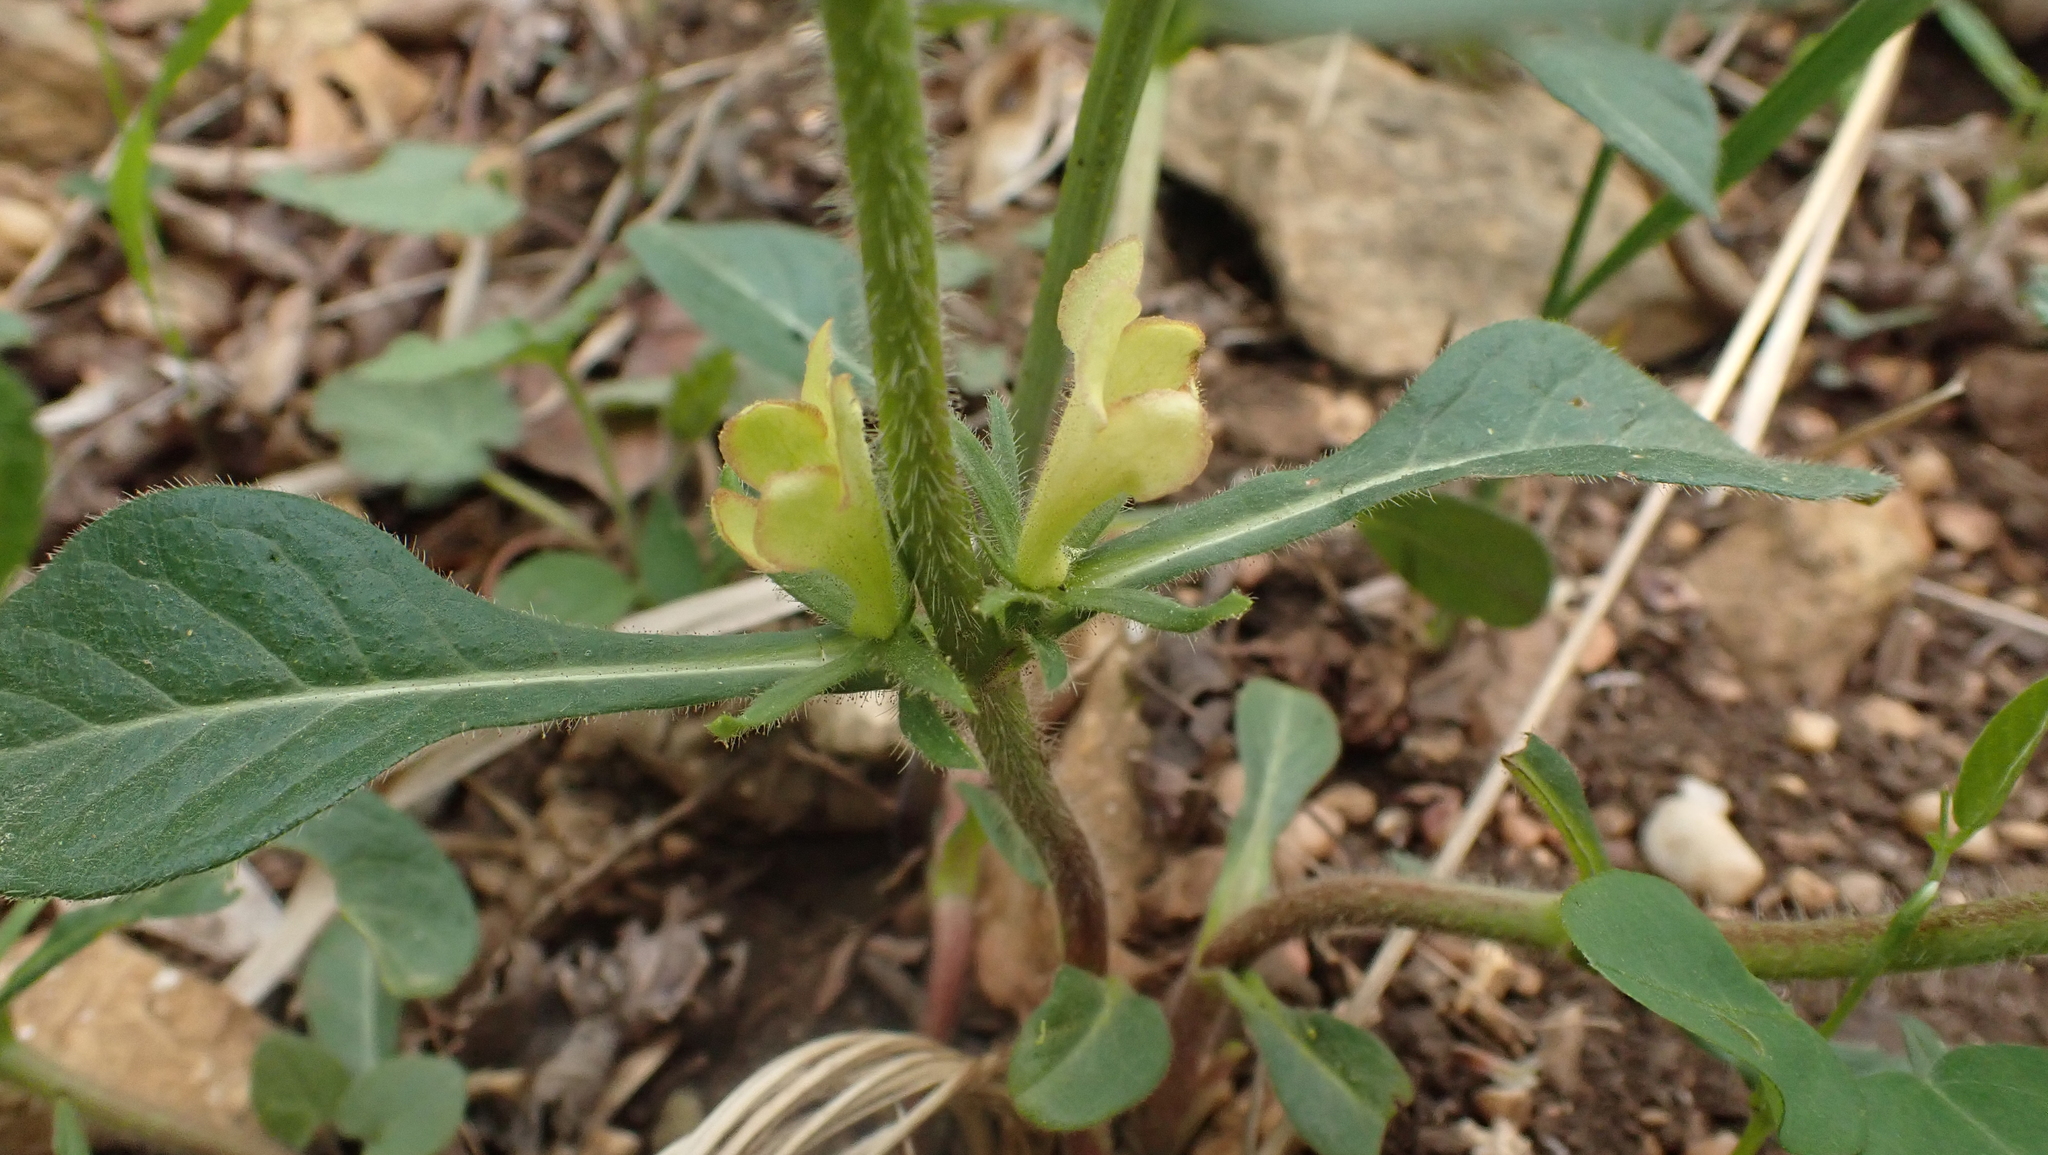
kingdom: Plantae
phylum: Tracheophyta
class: Magnoliopsida
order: Dipsacales
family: Caprifoliaceae
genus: Triosteum
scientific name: Triosteum angustifolium
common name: Narrow-leaved horse-gentian
